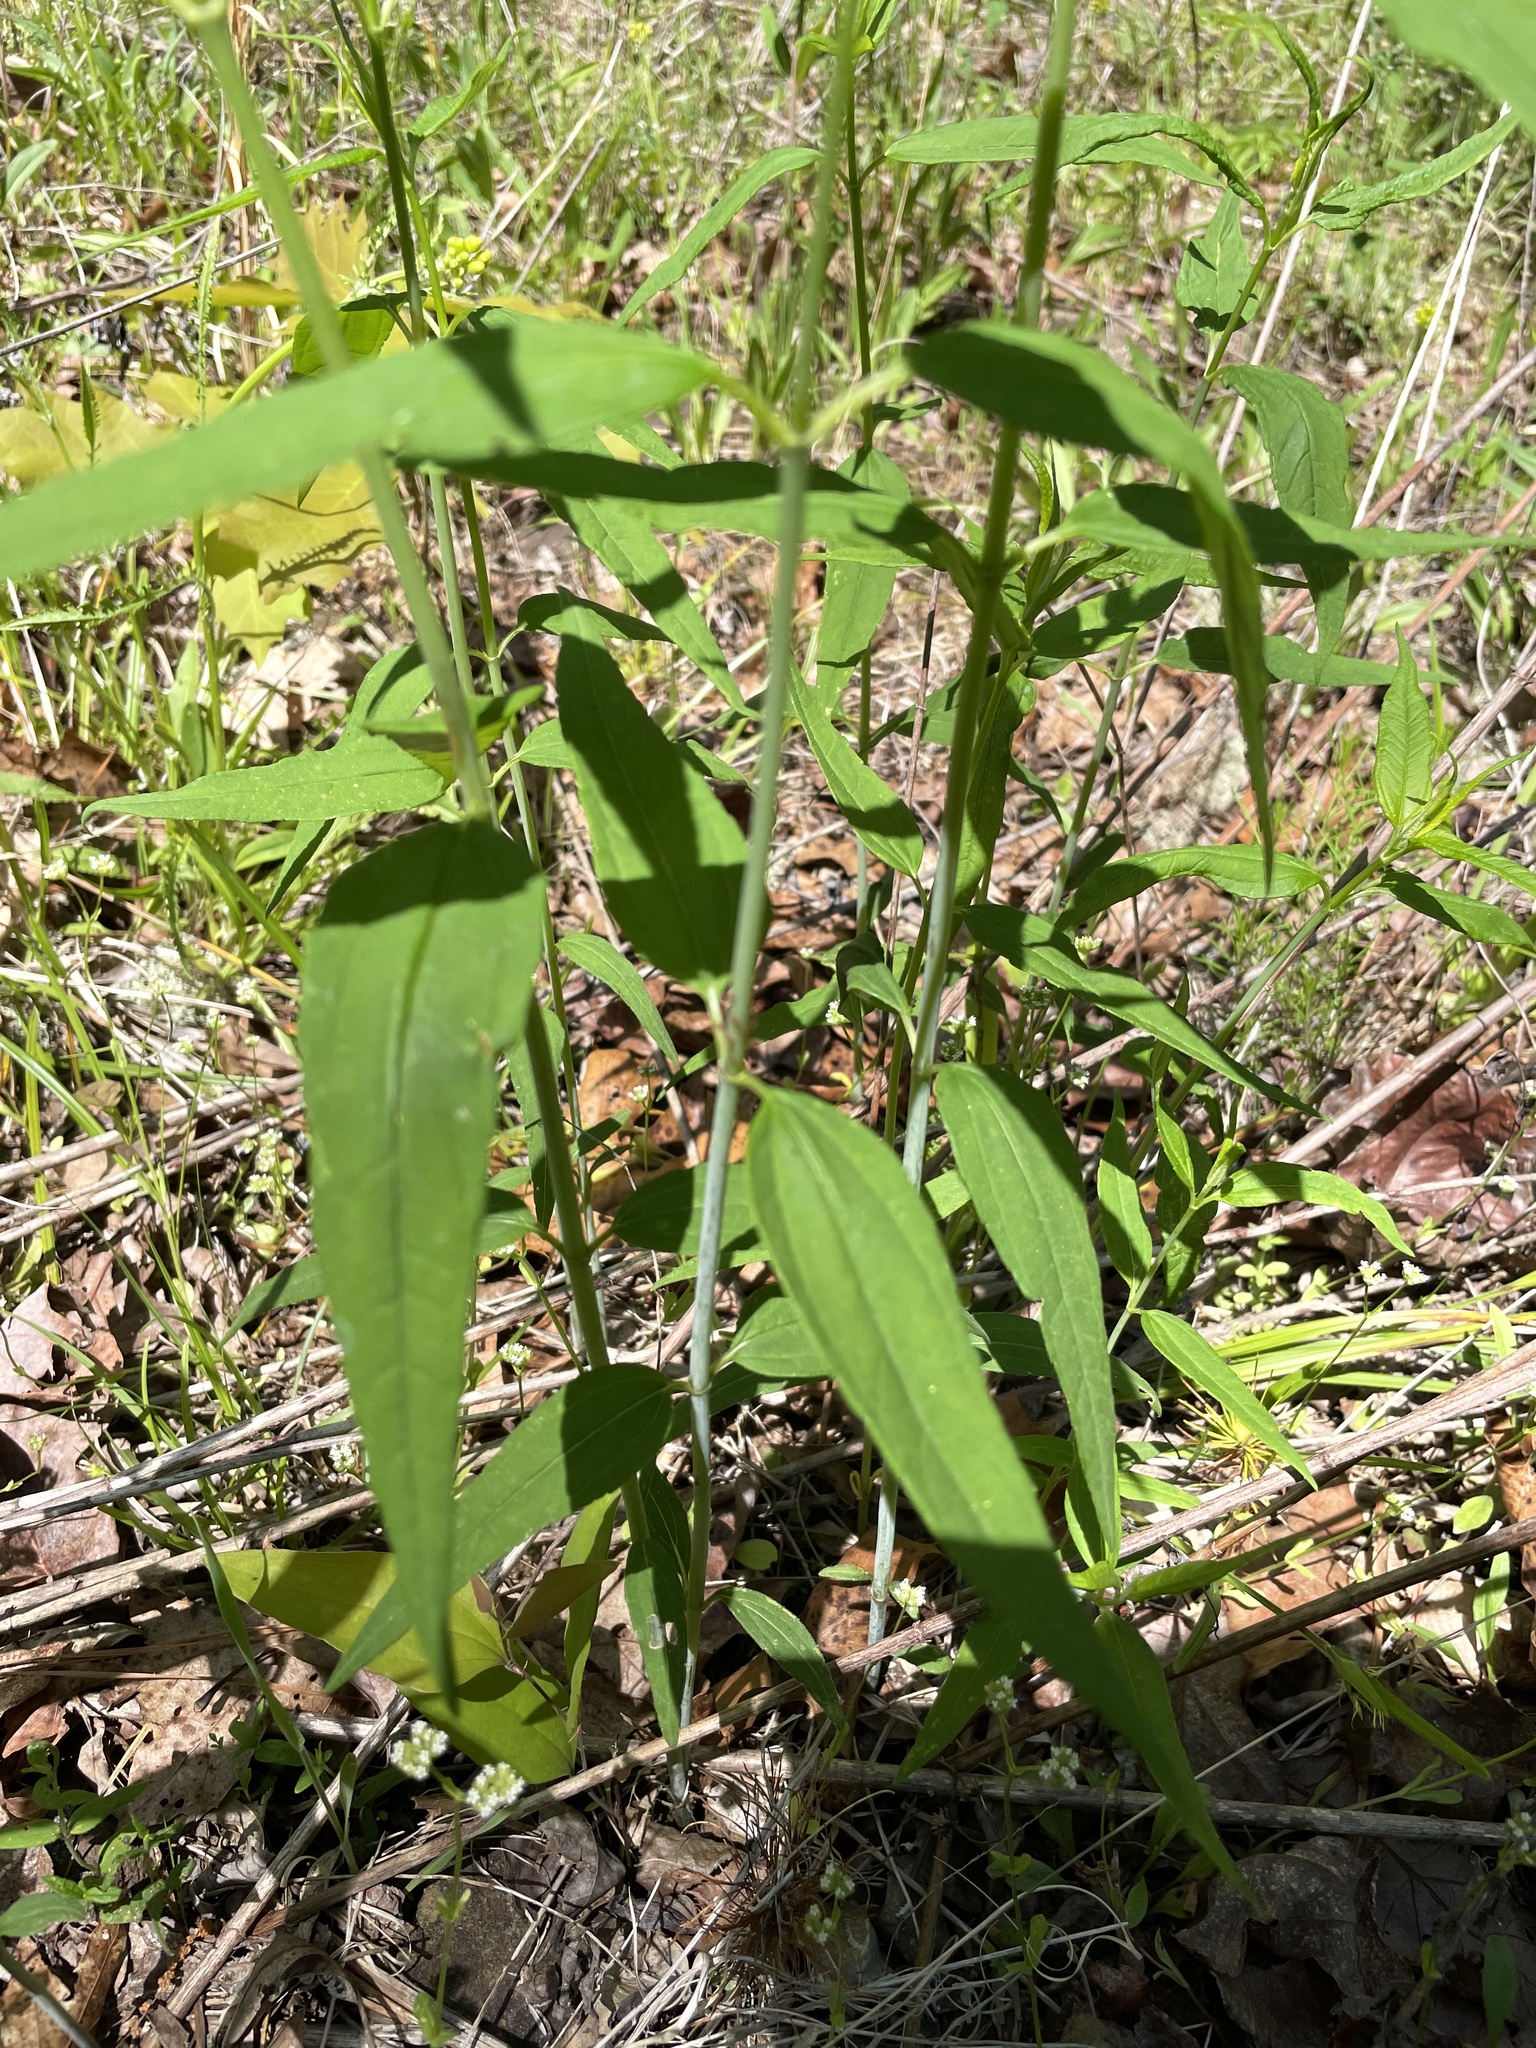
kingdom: Plantae
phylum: Tracheophyta
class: Magnoliopsida
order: Asterales
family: Asteraceae
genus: Helianthus
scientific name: Helianthus microcephalus
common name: Woodland sunflower
